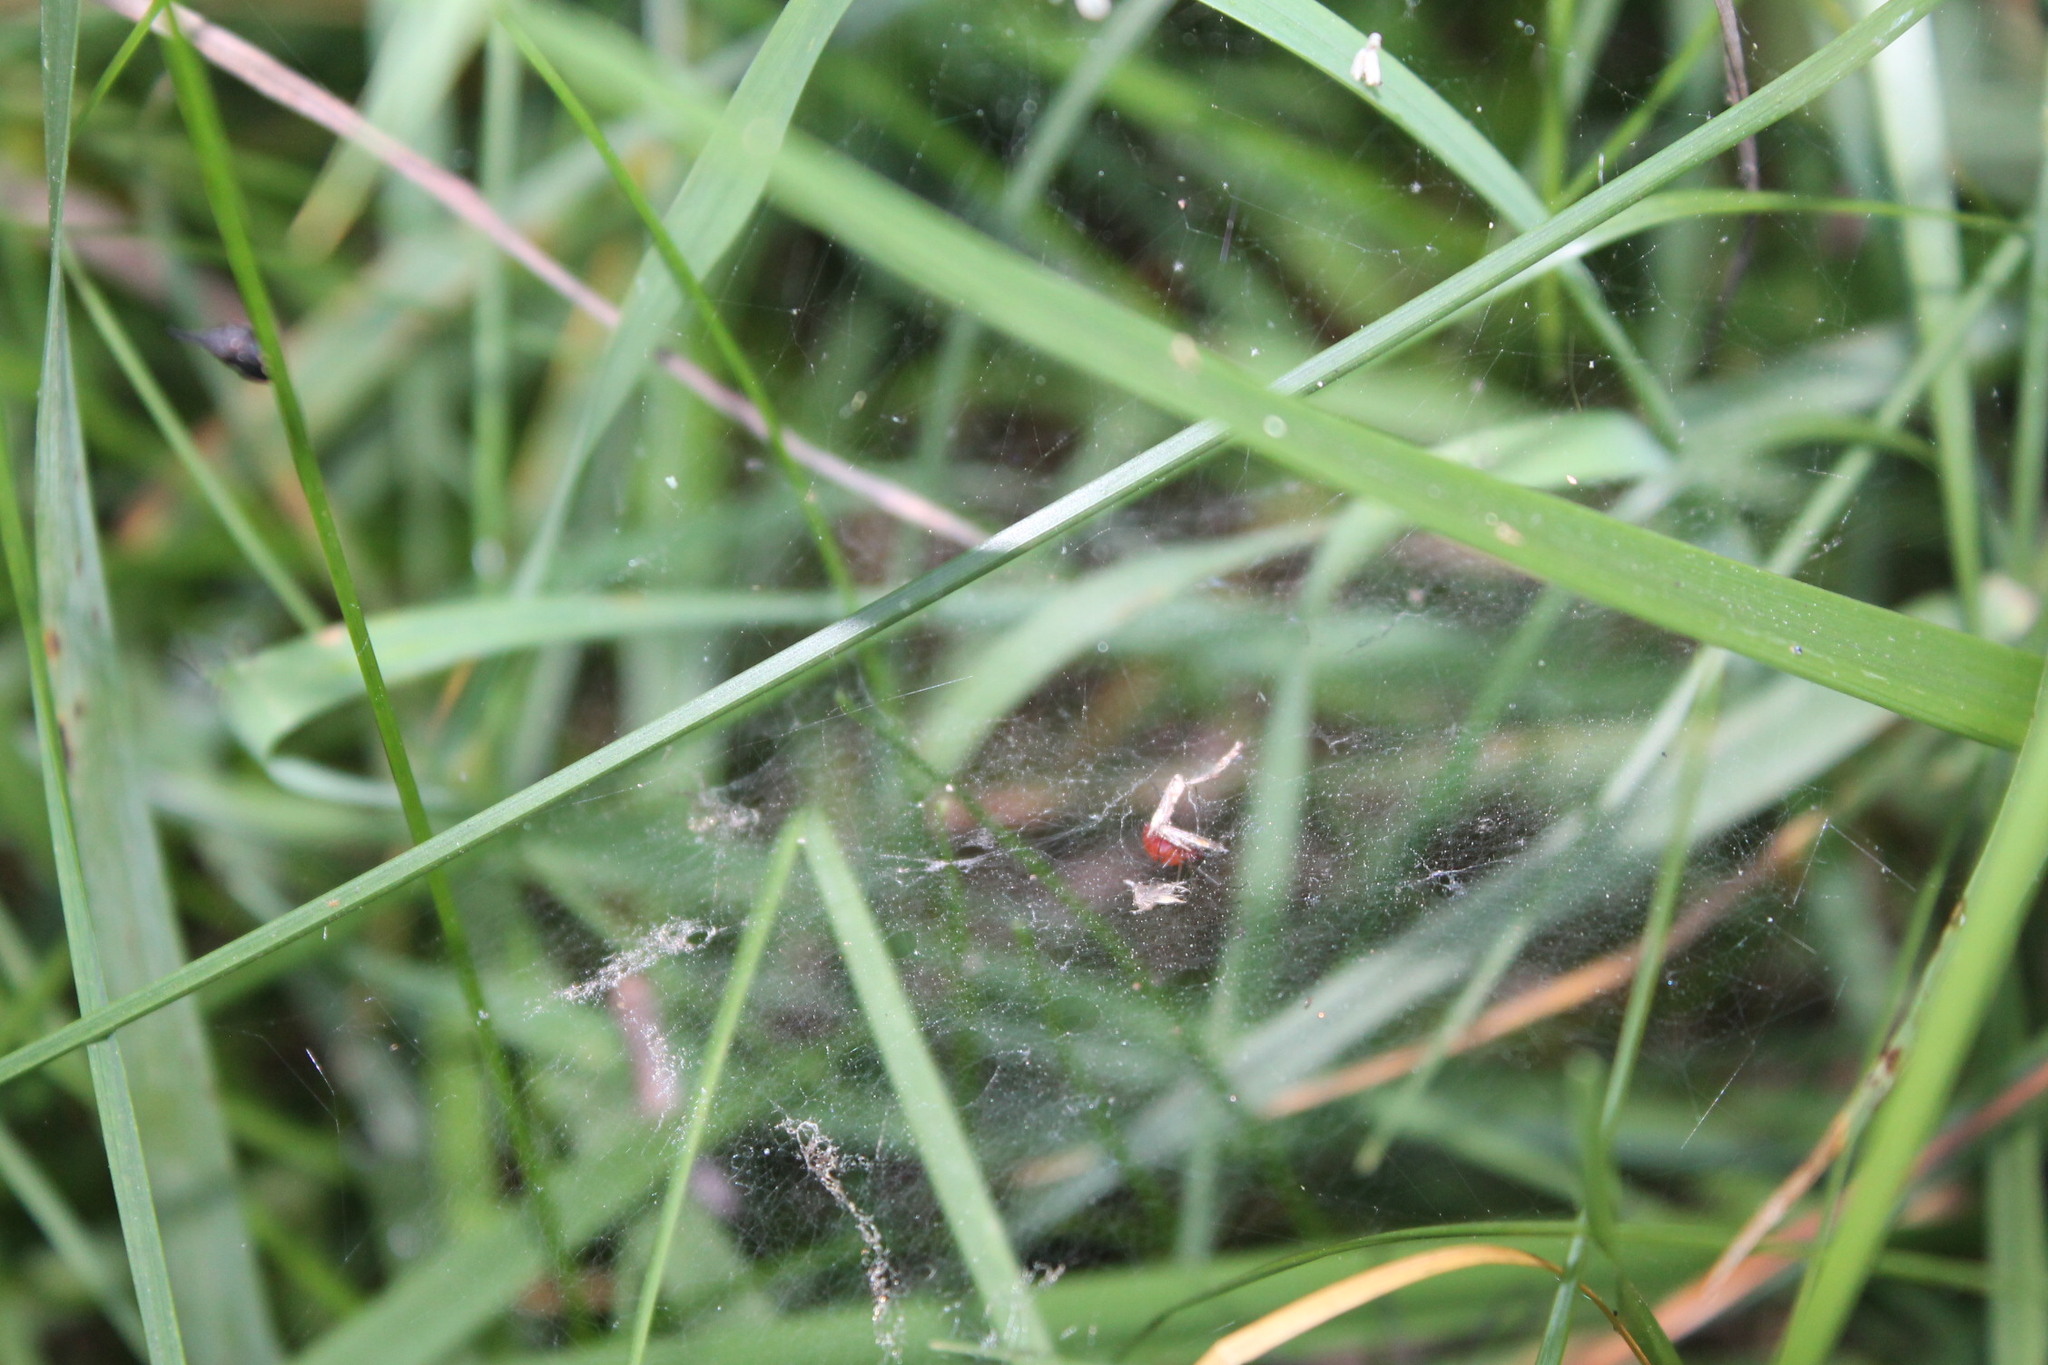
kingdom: Animalia
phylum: Arthropoda
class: Arachnida
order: Araneae
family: Linyphiidae
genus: Florinda
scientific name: Florinda coccinea
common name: Black-tailed red sheetweaver
